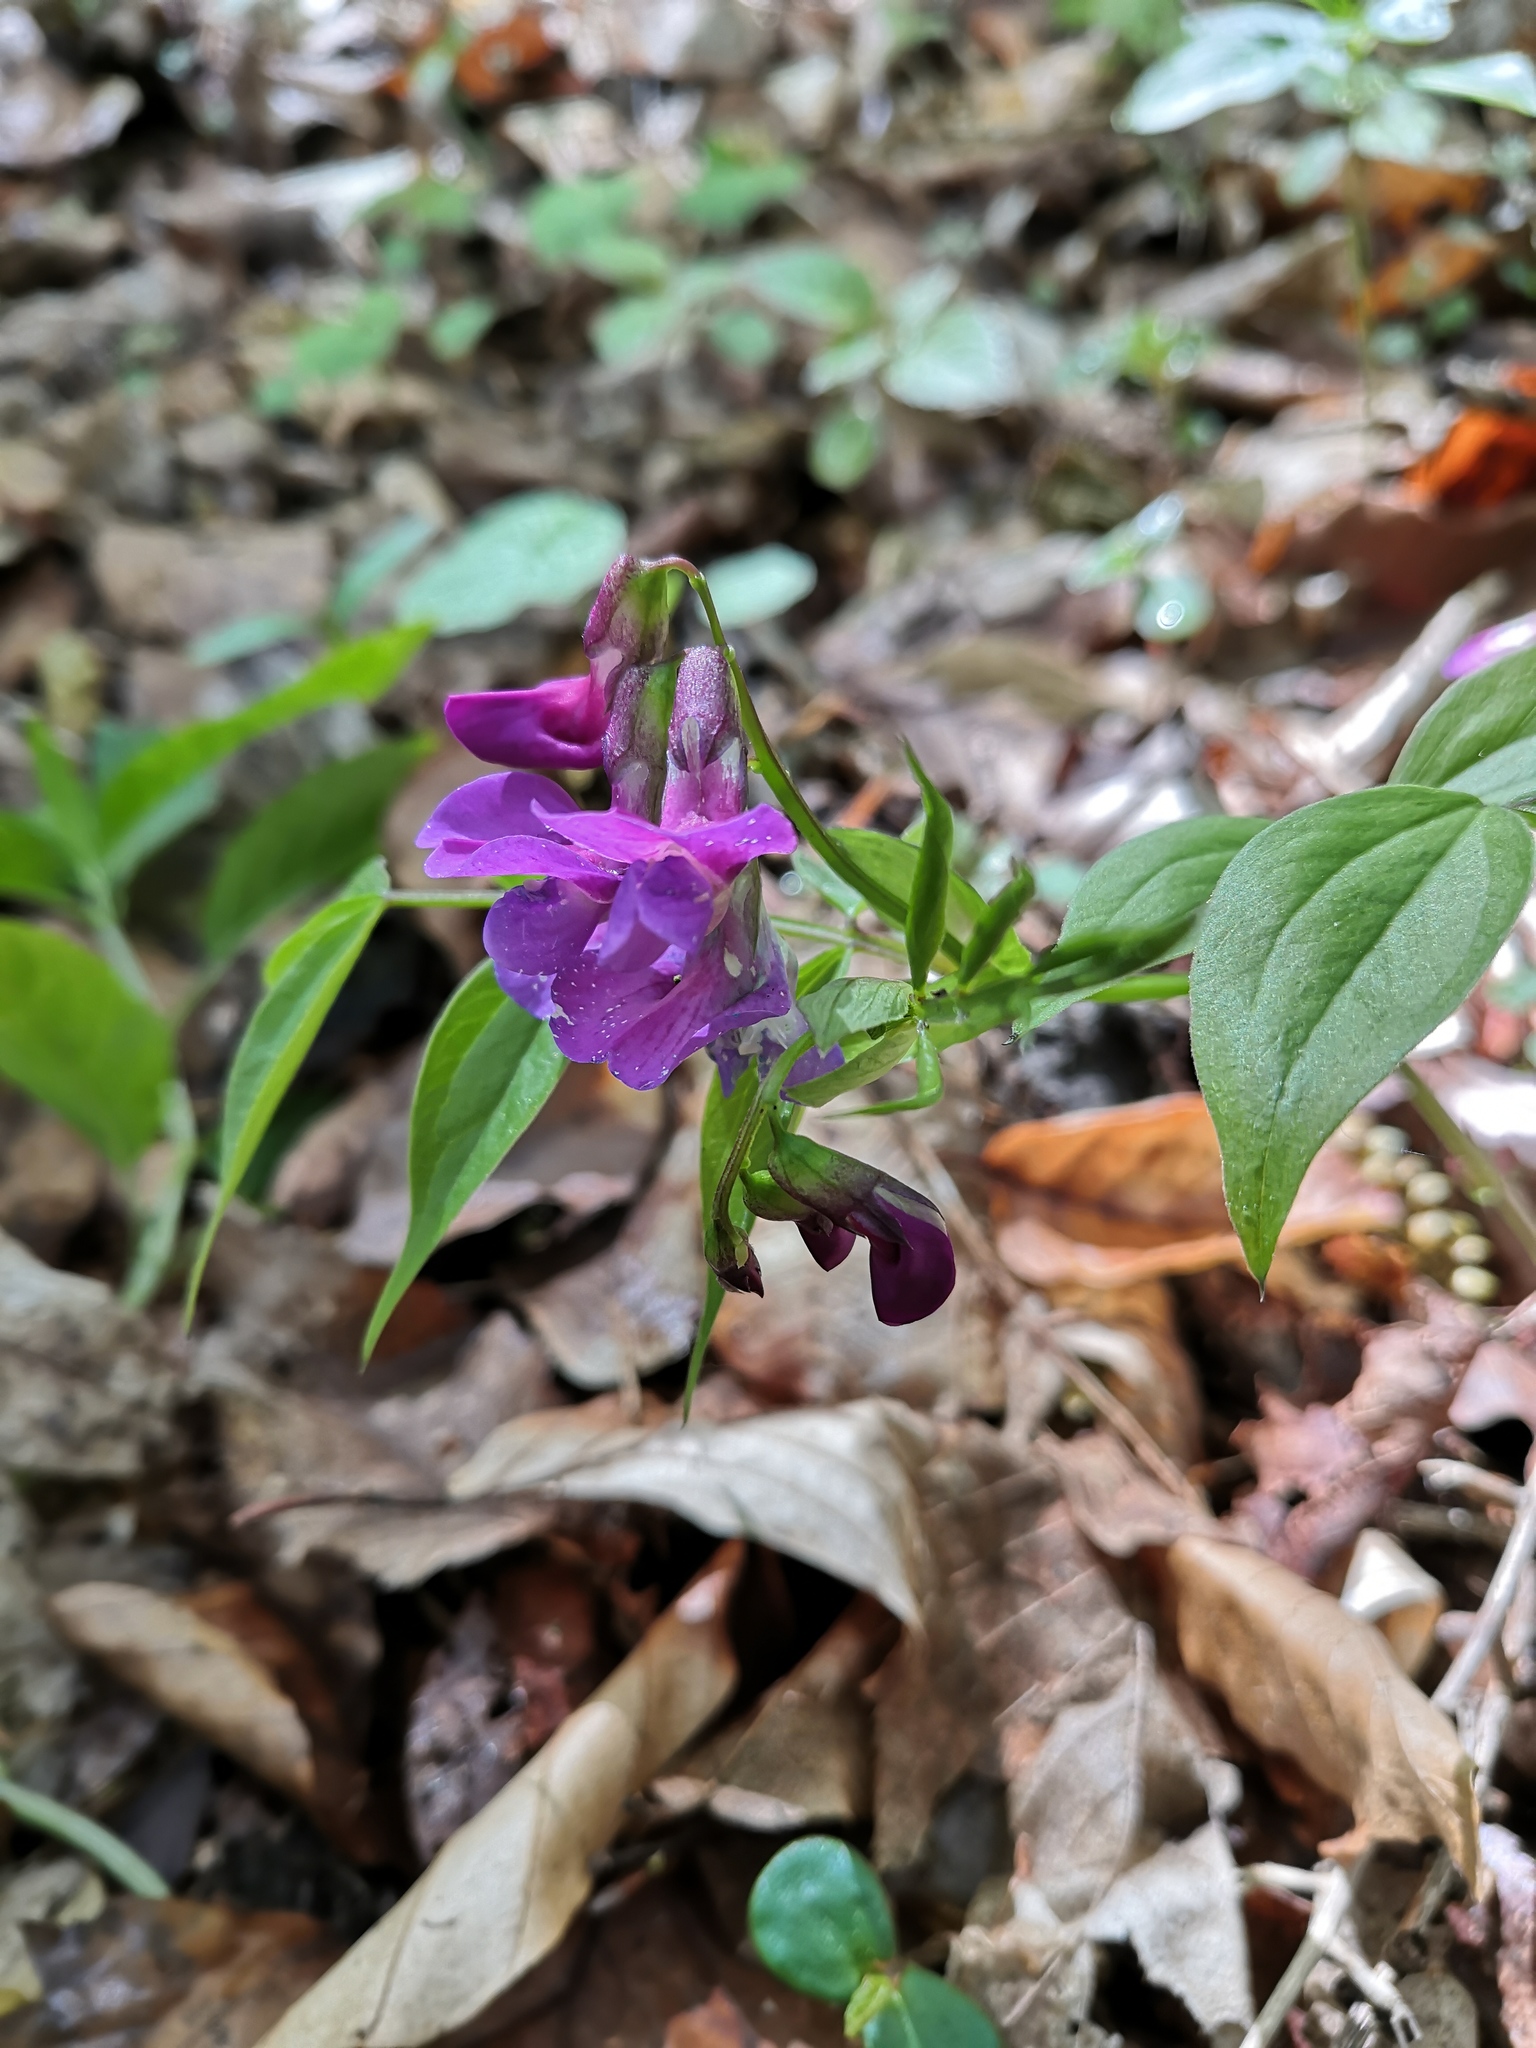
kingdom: Plantae
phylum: Tracheophyta
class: Magnoliopsida
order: Fabales
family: Fabaceae
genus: Lathyrus
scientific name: Lathyrus vernus
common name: Spring pea
